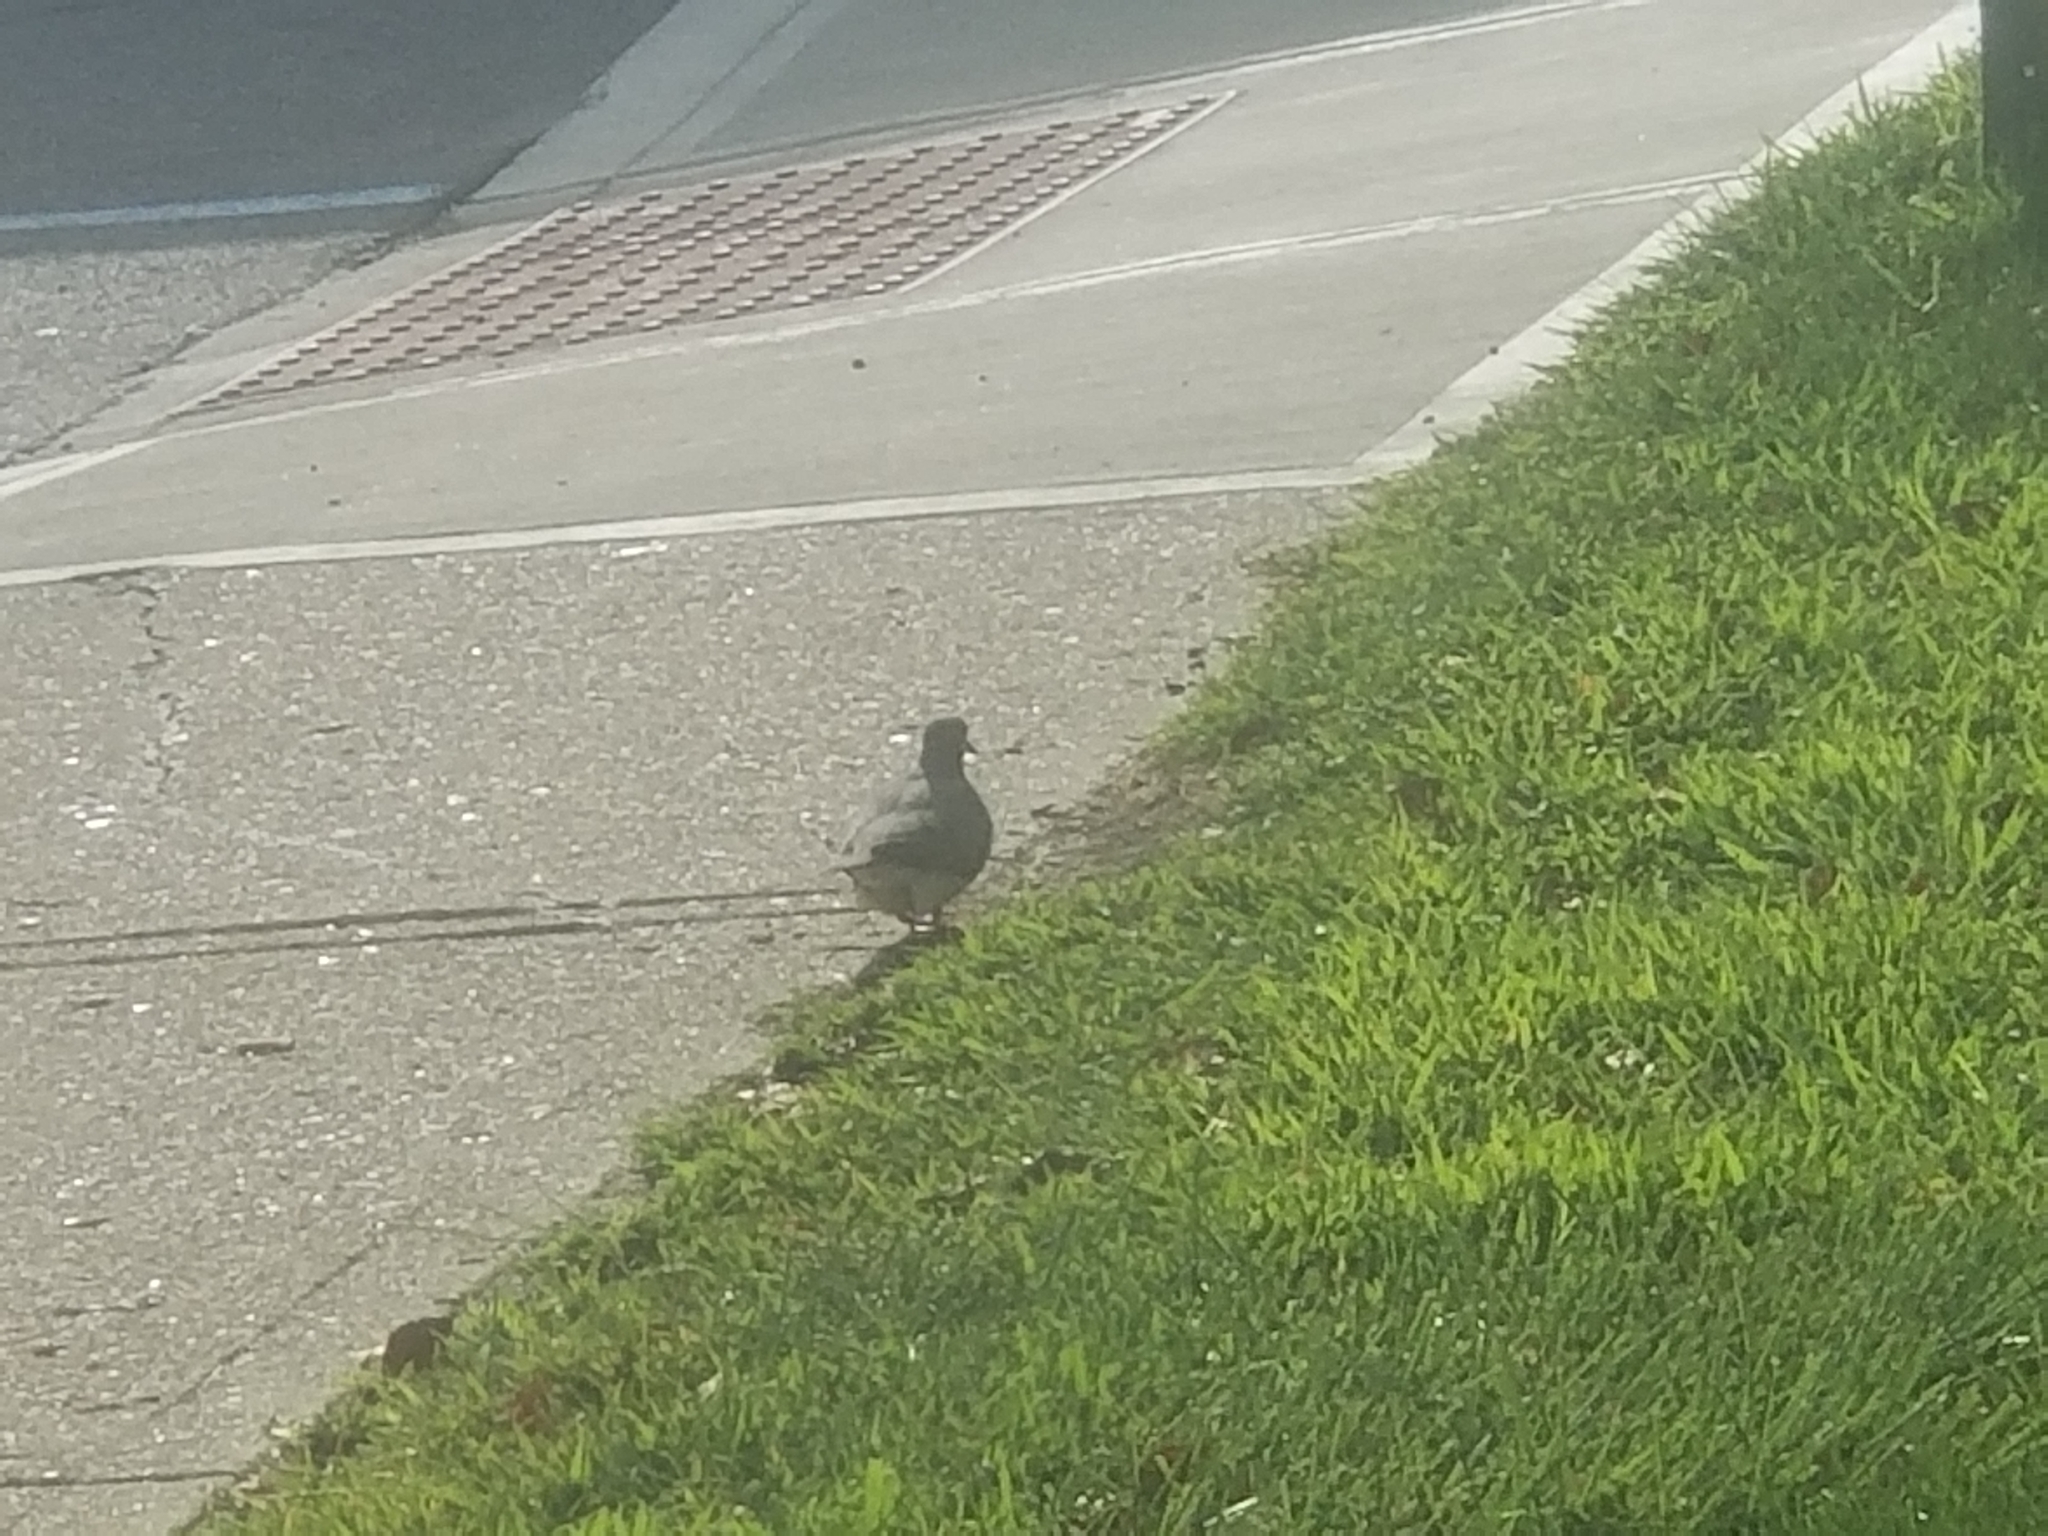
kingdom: Animalia
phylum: Chordata
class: Aves
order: Columbiformes
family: Columbidae
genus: Zenaida
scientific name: Zenaida macroura
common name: Mourning dove
